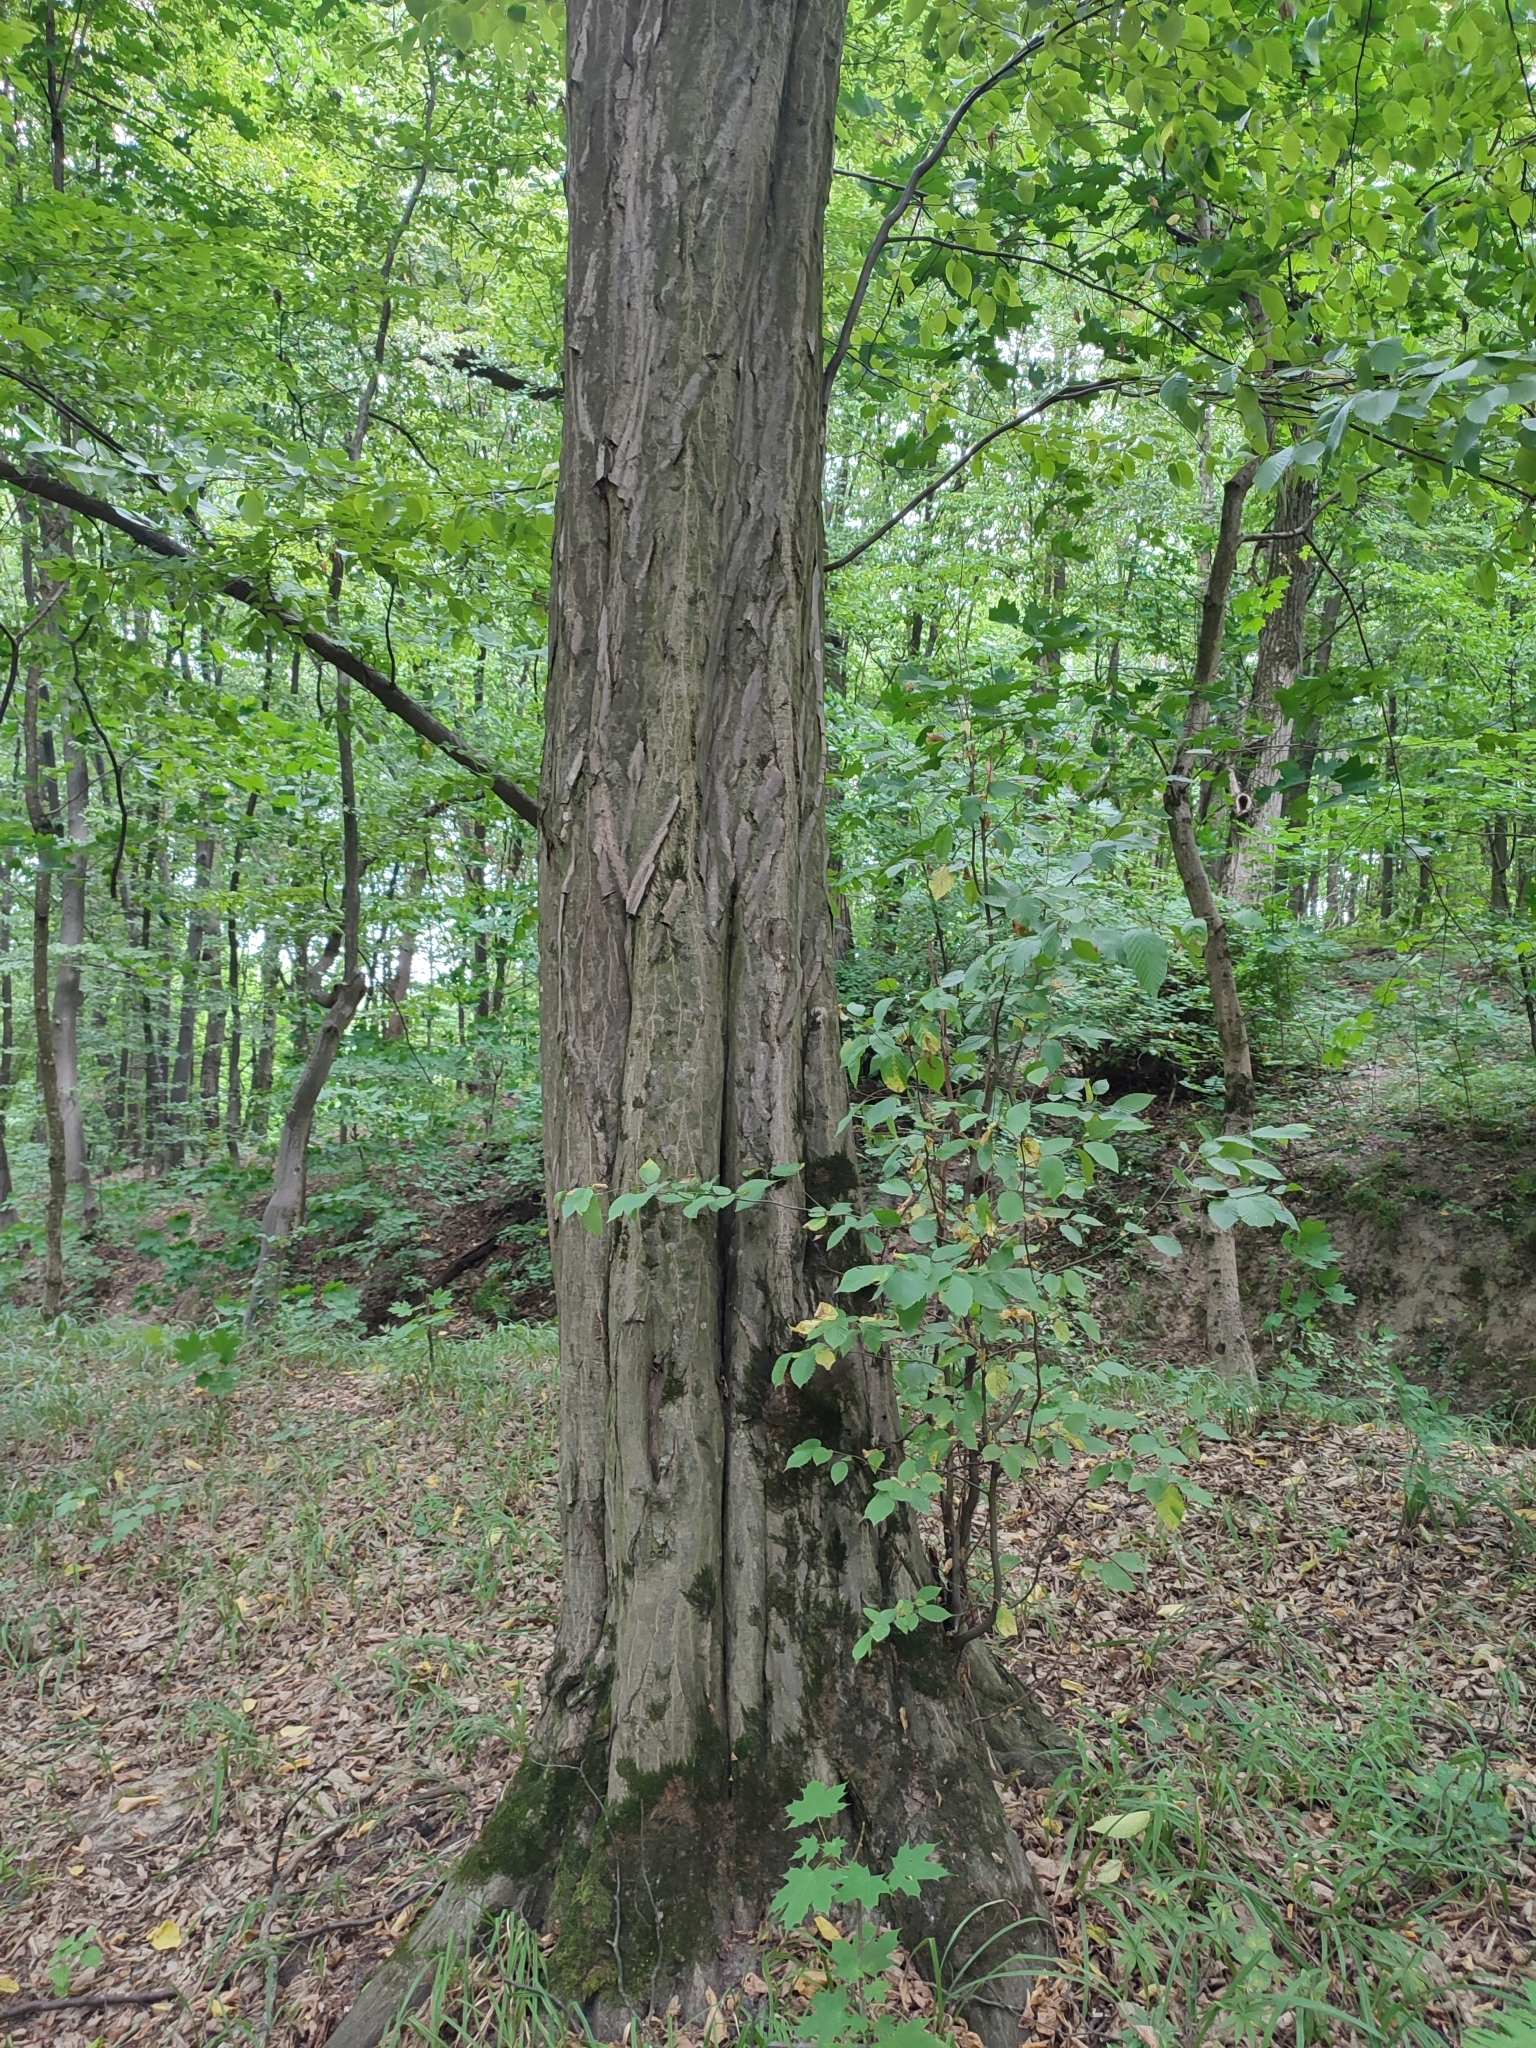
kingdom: Plantae
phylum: Tracheophyta
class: Magnoliopsida
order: Fagales
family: Betulaceae
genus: Carpinus
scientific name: Carpinus betulus
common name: Hornbeam
